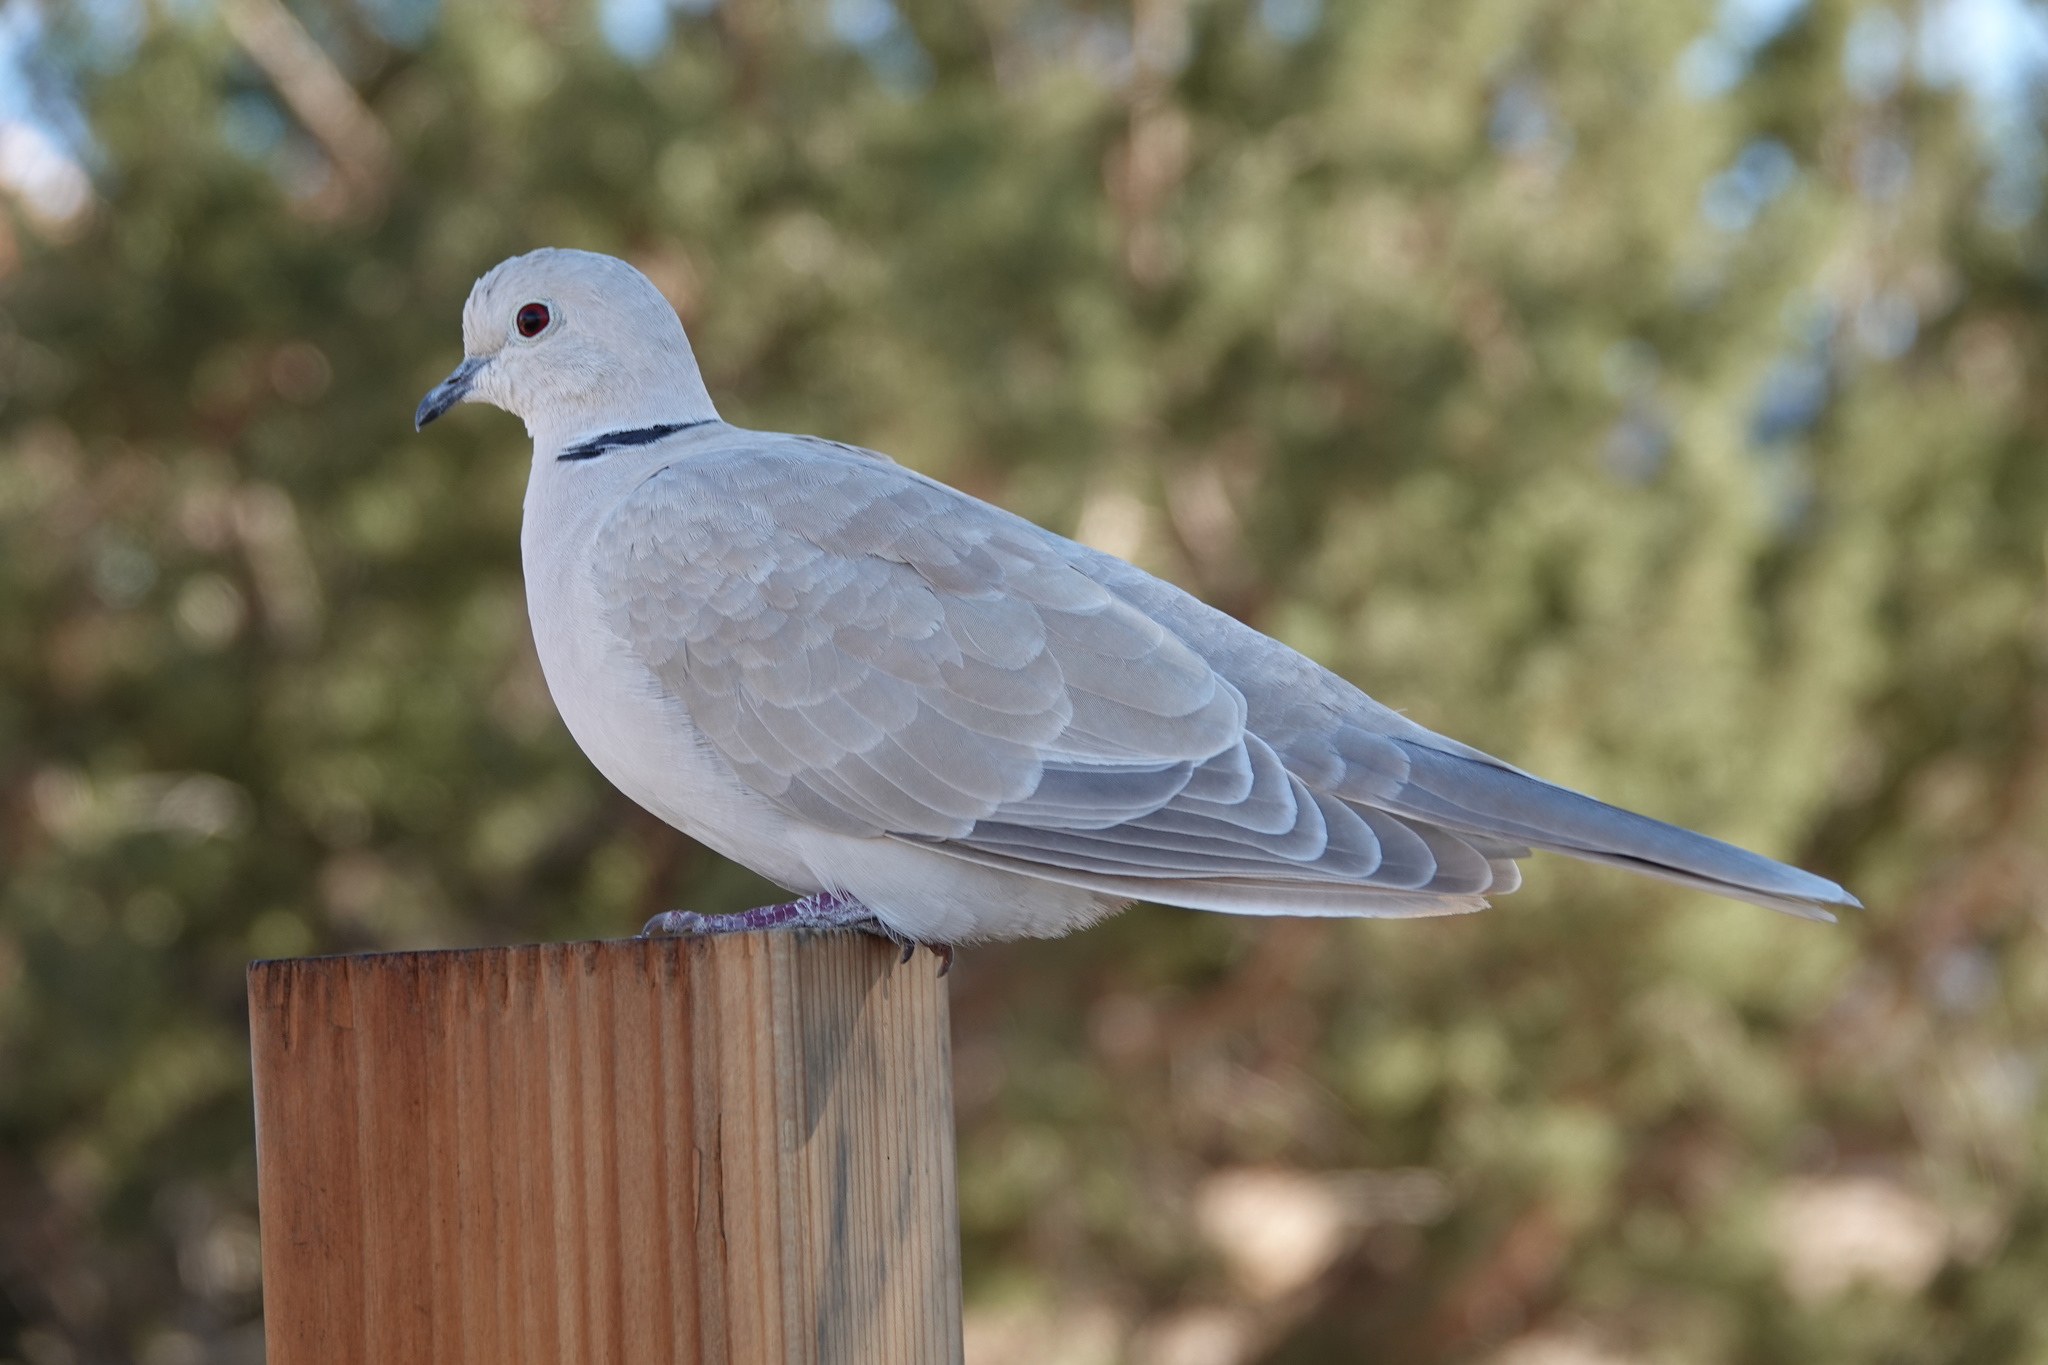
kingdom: Animalia
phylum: Chordata
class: Aves
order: Columbiformes
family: Columbidae
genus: Streptopelia
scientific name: Streptopelia roseogrisea
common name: African collared dove
